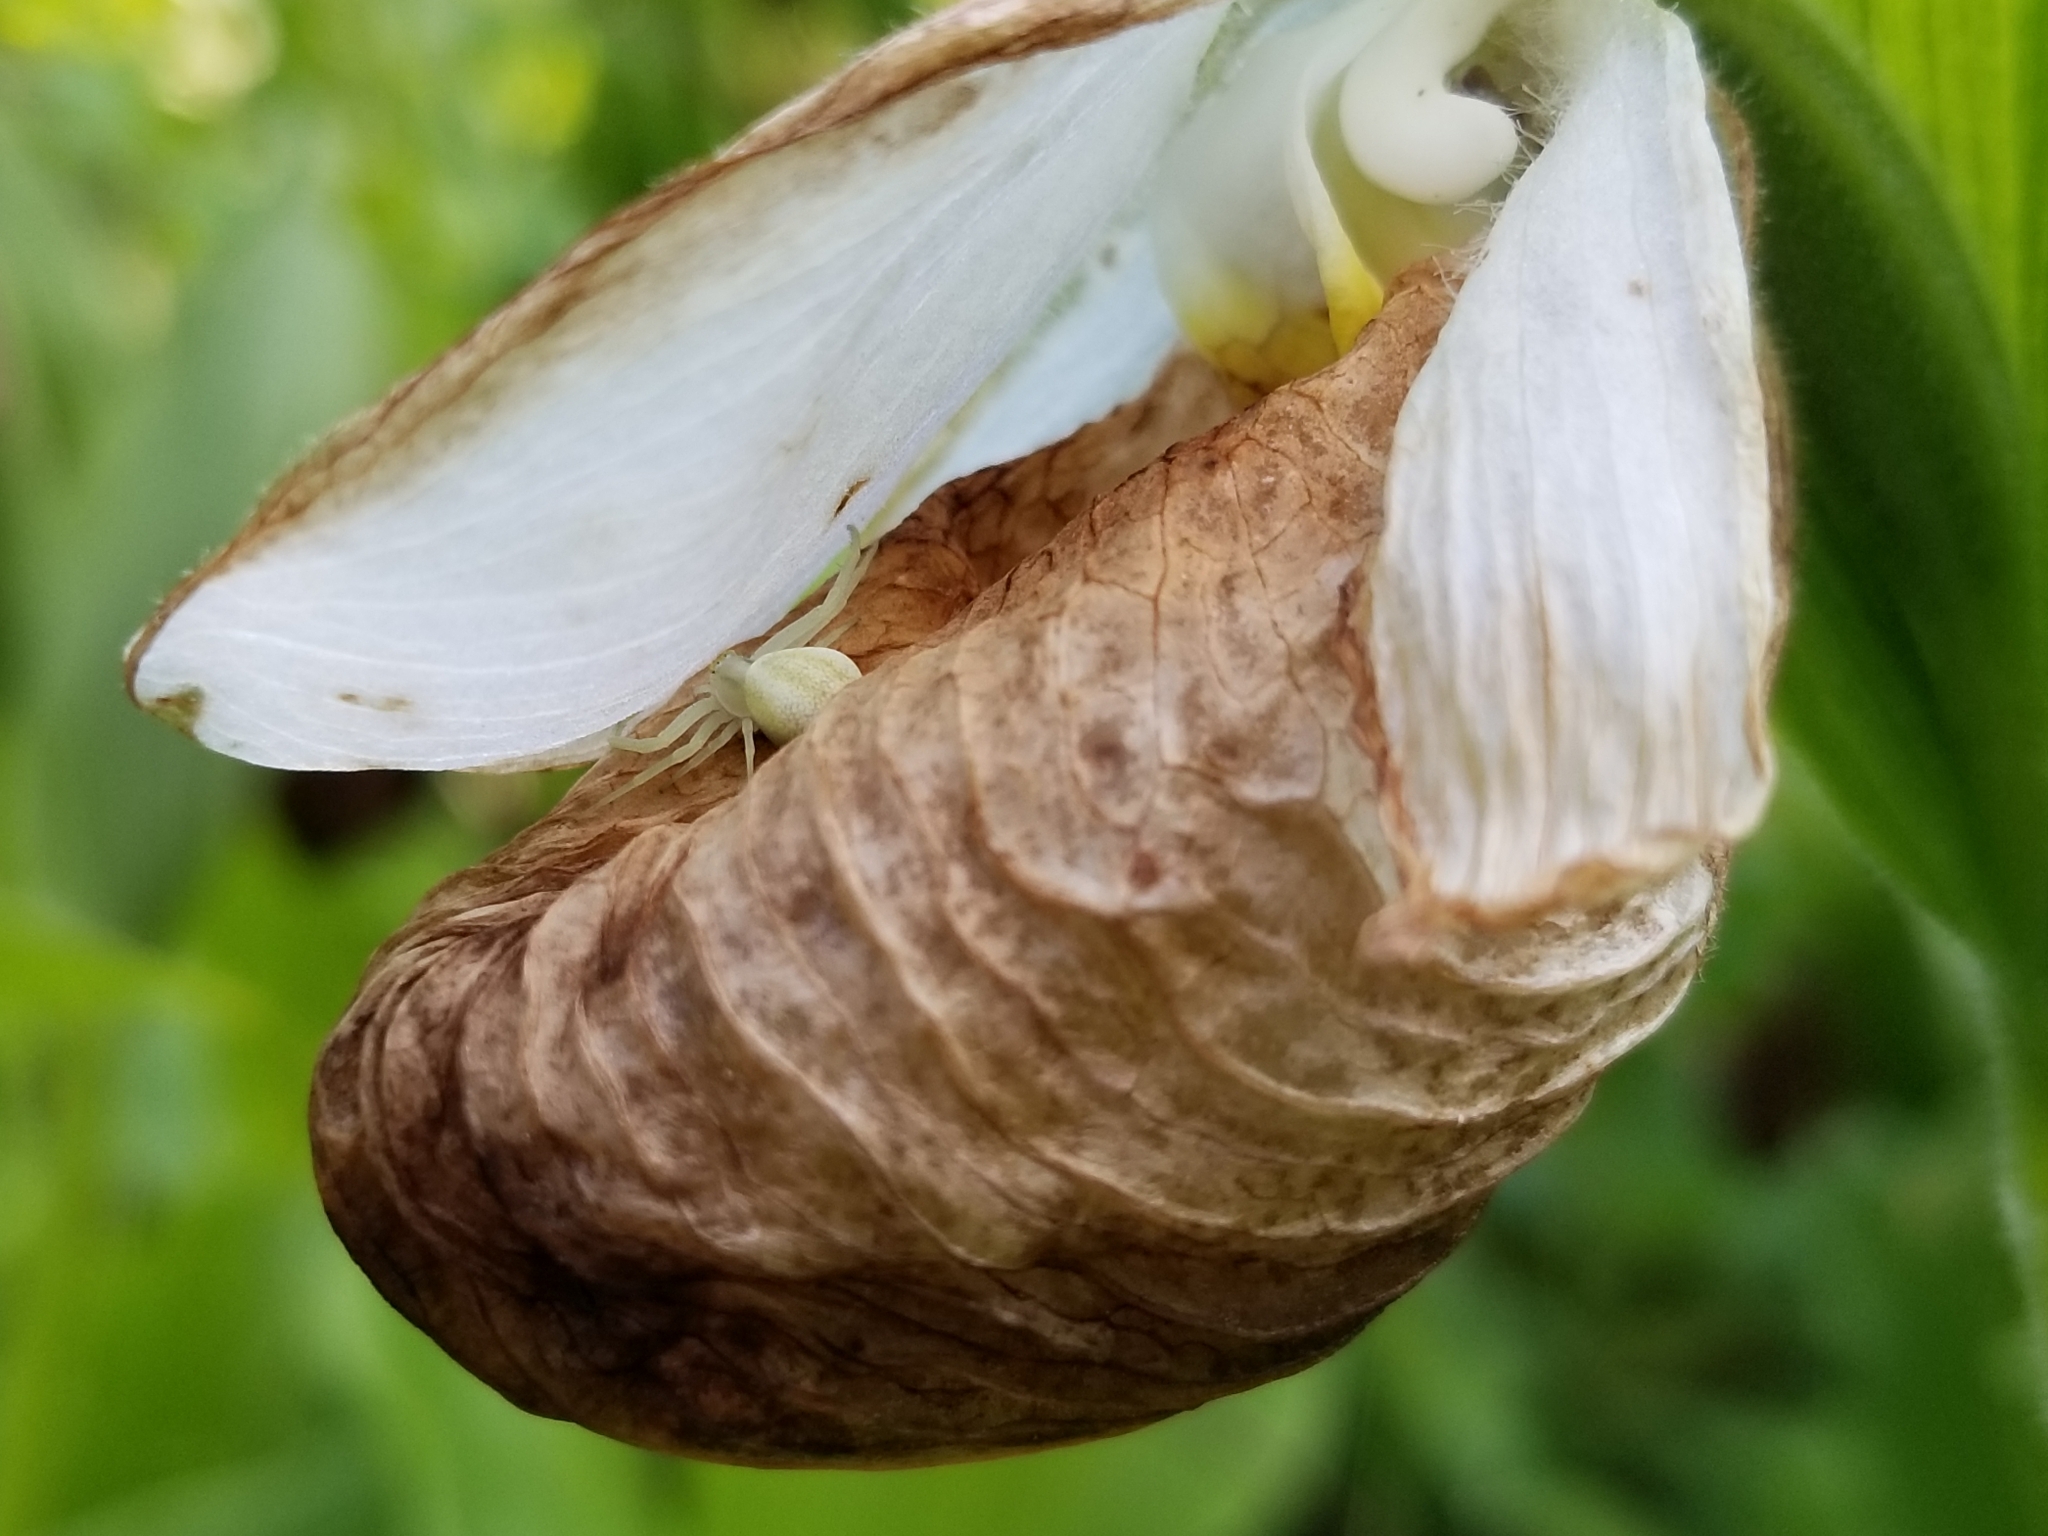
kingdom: Plantae
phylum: Tracheophyta
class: Liliopsida
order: Asparagales
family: Orchidaceae
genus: Cypripedium
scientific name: Cypripedium reginae
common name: Queen lady's-slipper
